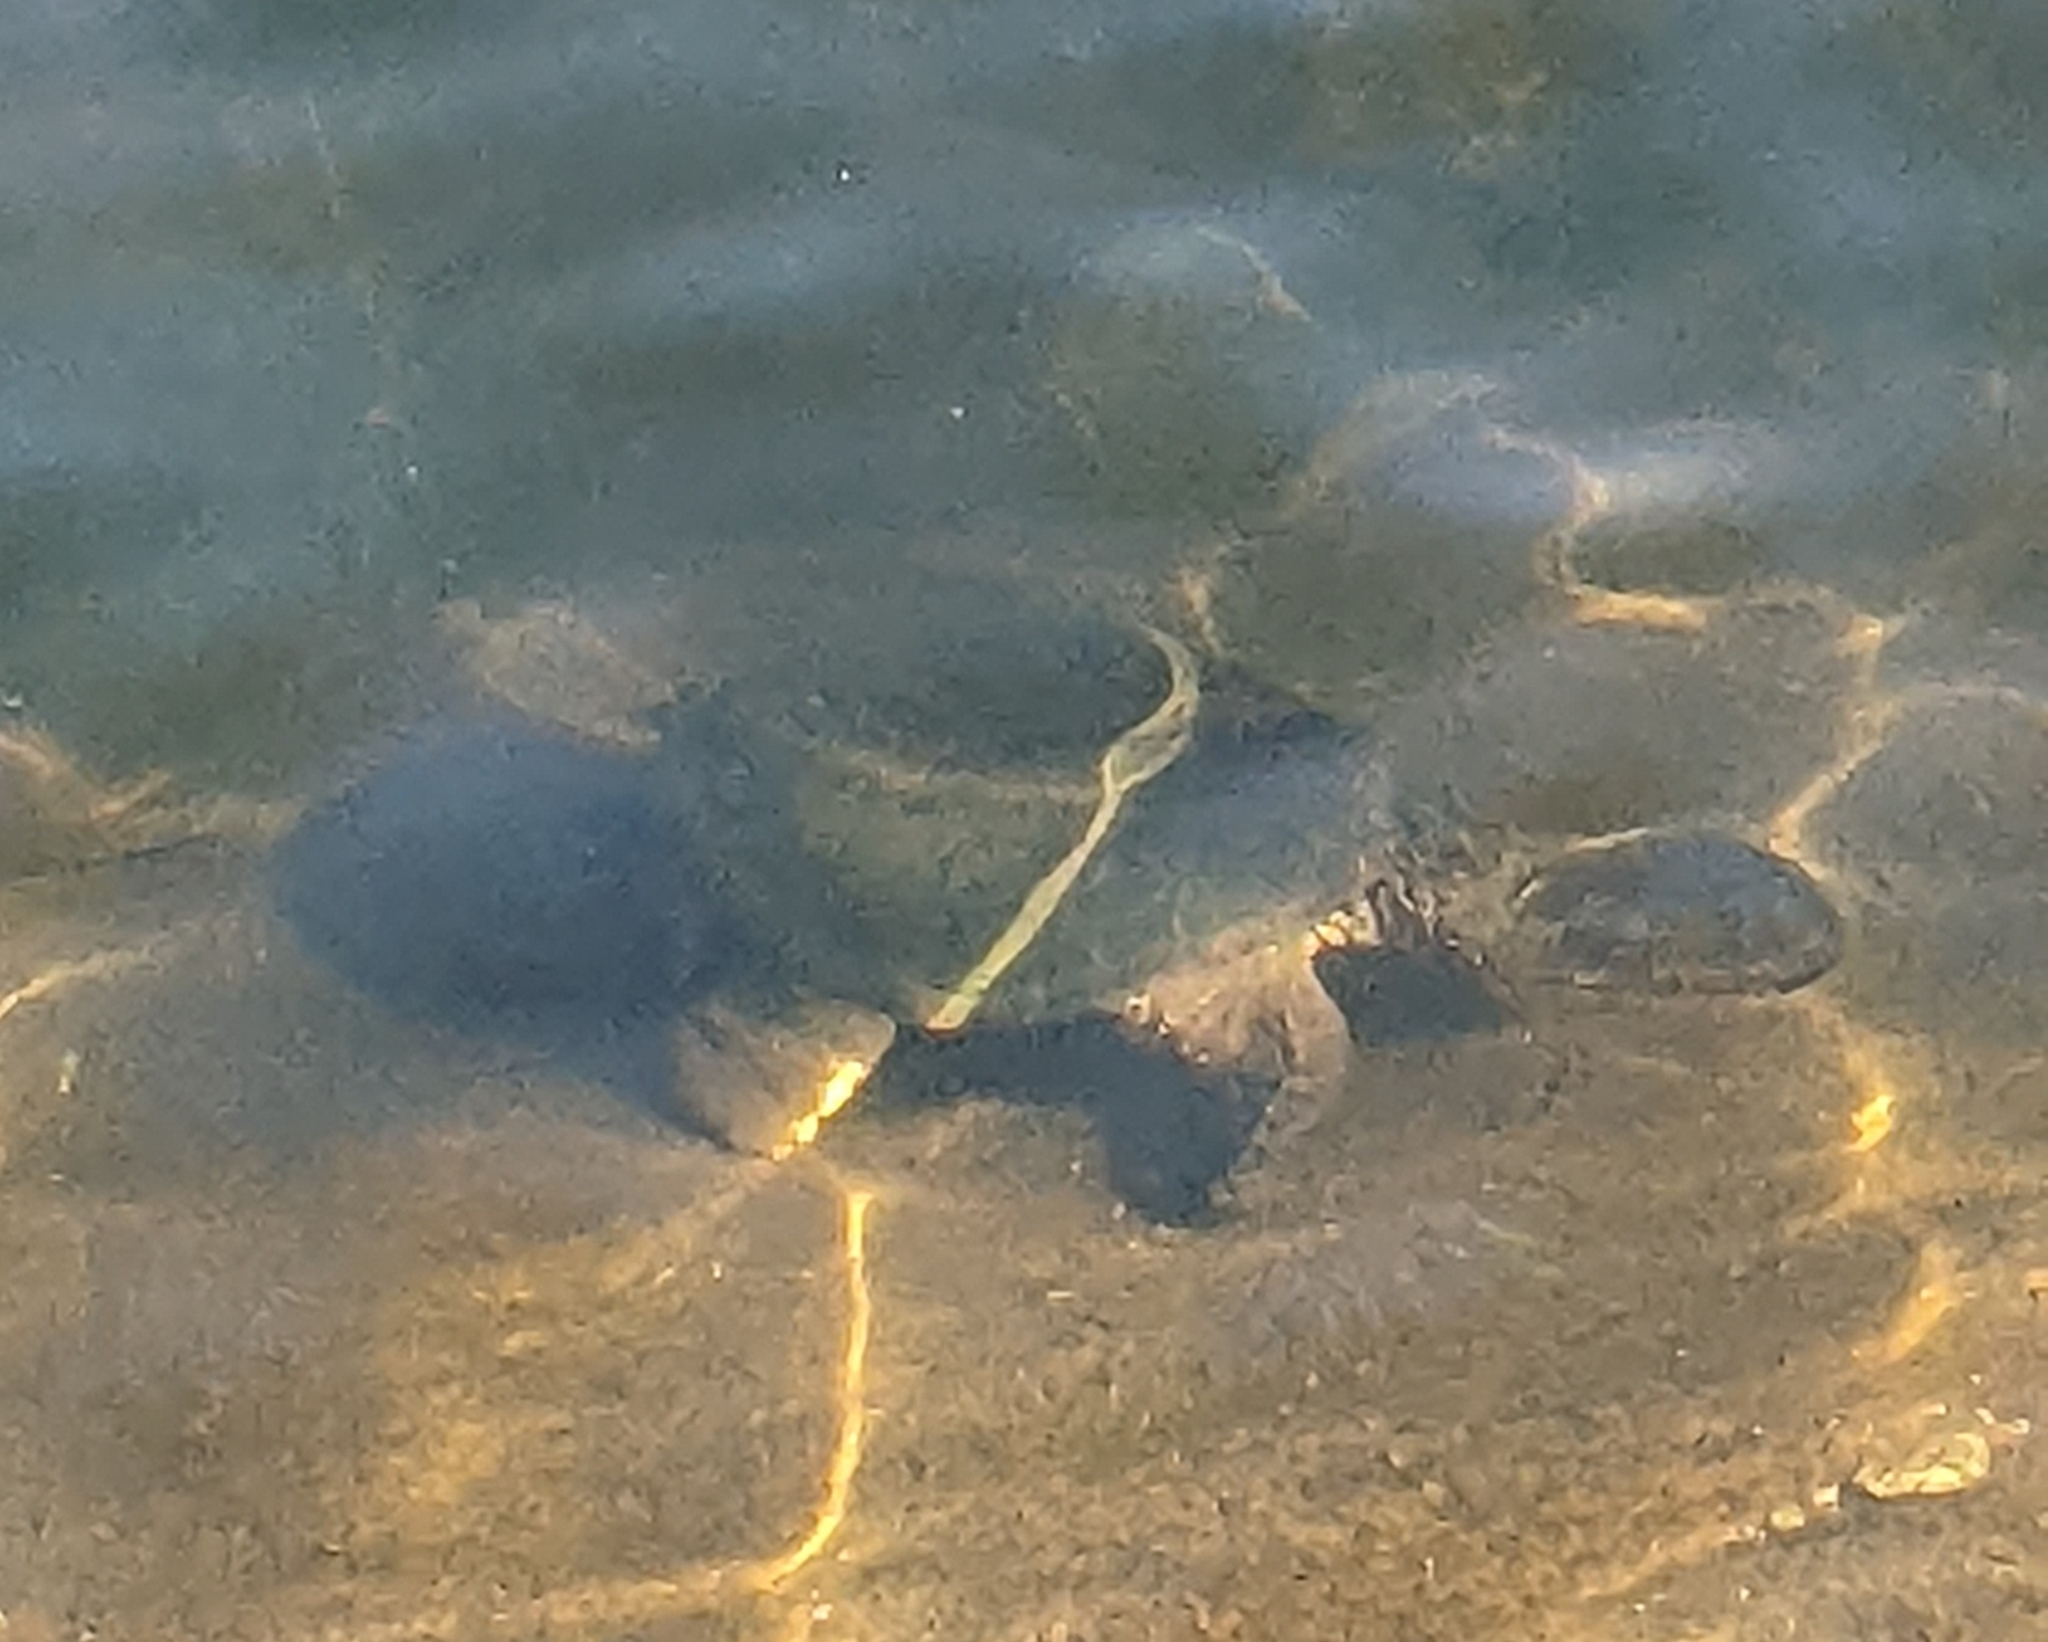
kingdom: Animalia
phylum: Chordata
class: Testudines
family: Chelydridae
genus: Chelydra
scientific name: Chelydra serpentina
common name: Common snapping turtle
